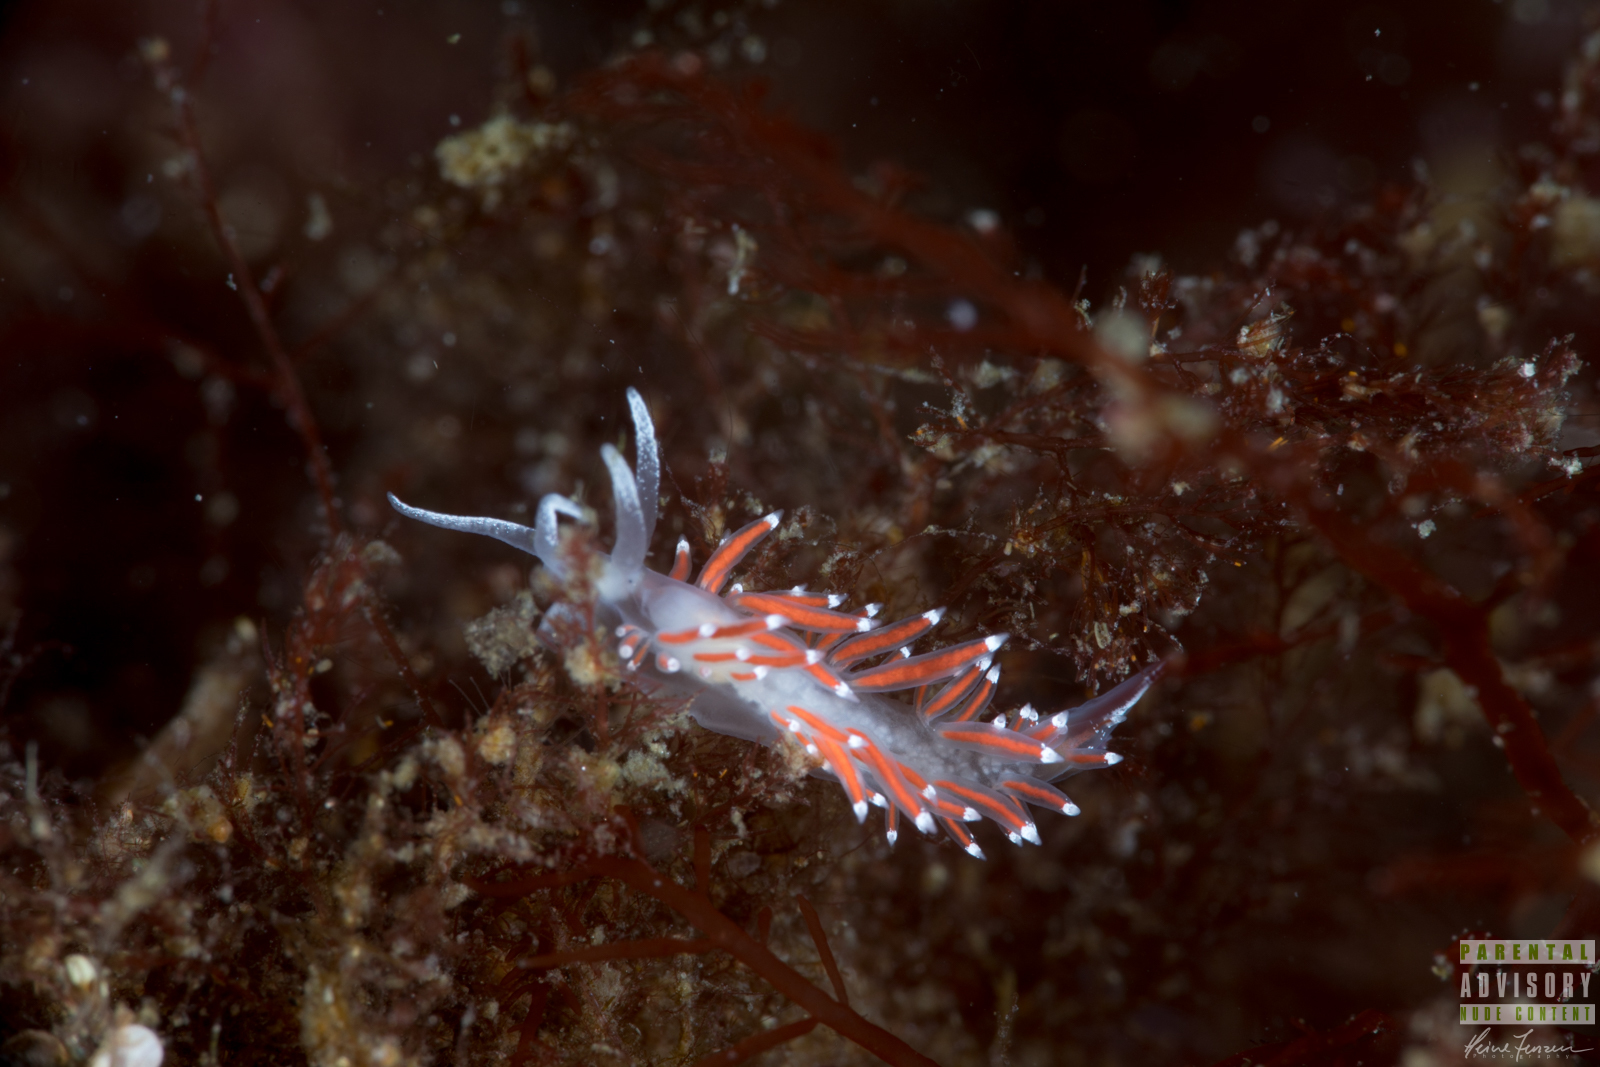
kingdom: Animalia
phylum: Mollusca
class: Gastropoda
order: Nudibranchia
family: Coryphellidae
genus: Coryphella
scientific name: Coryphella gracilis
